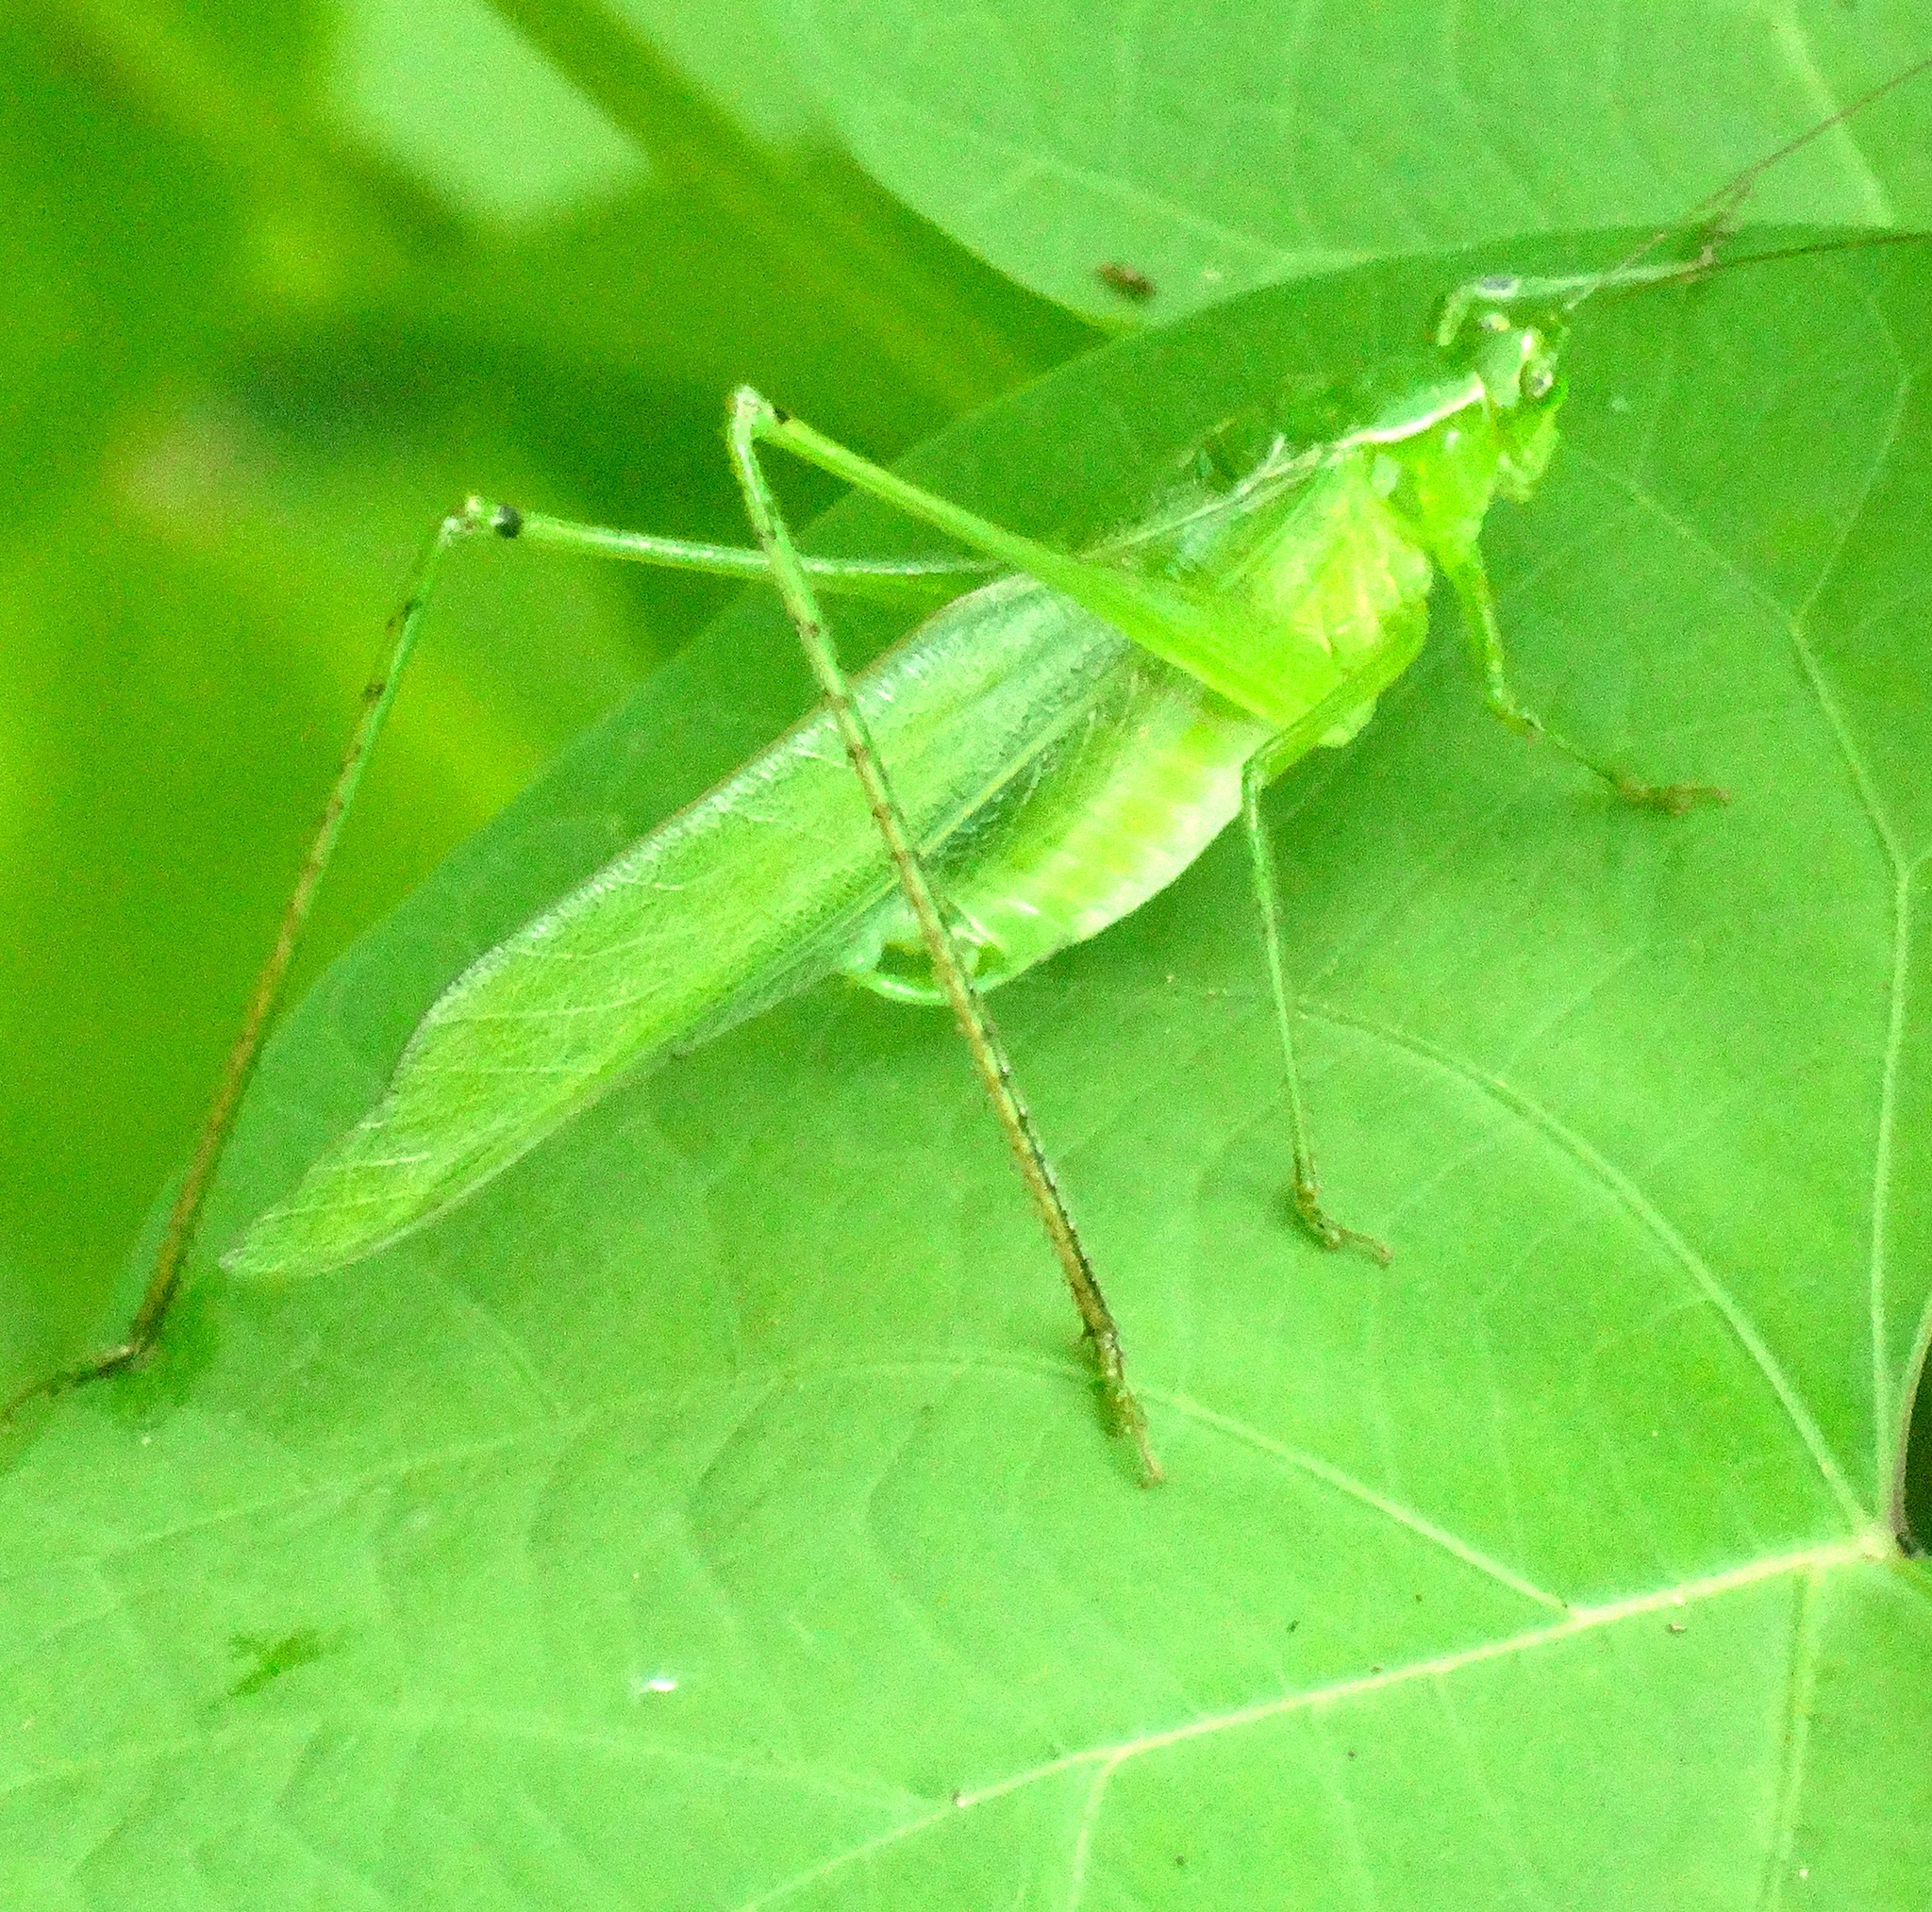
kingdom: Animalia
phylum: Arthropoda
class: Insecta
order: Orthoptera
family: Tettigoniidae
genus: Scudderia
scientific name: Scudderia
